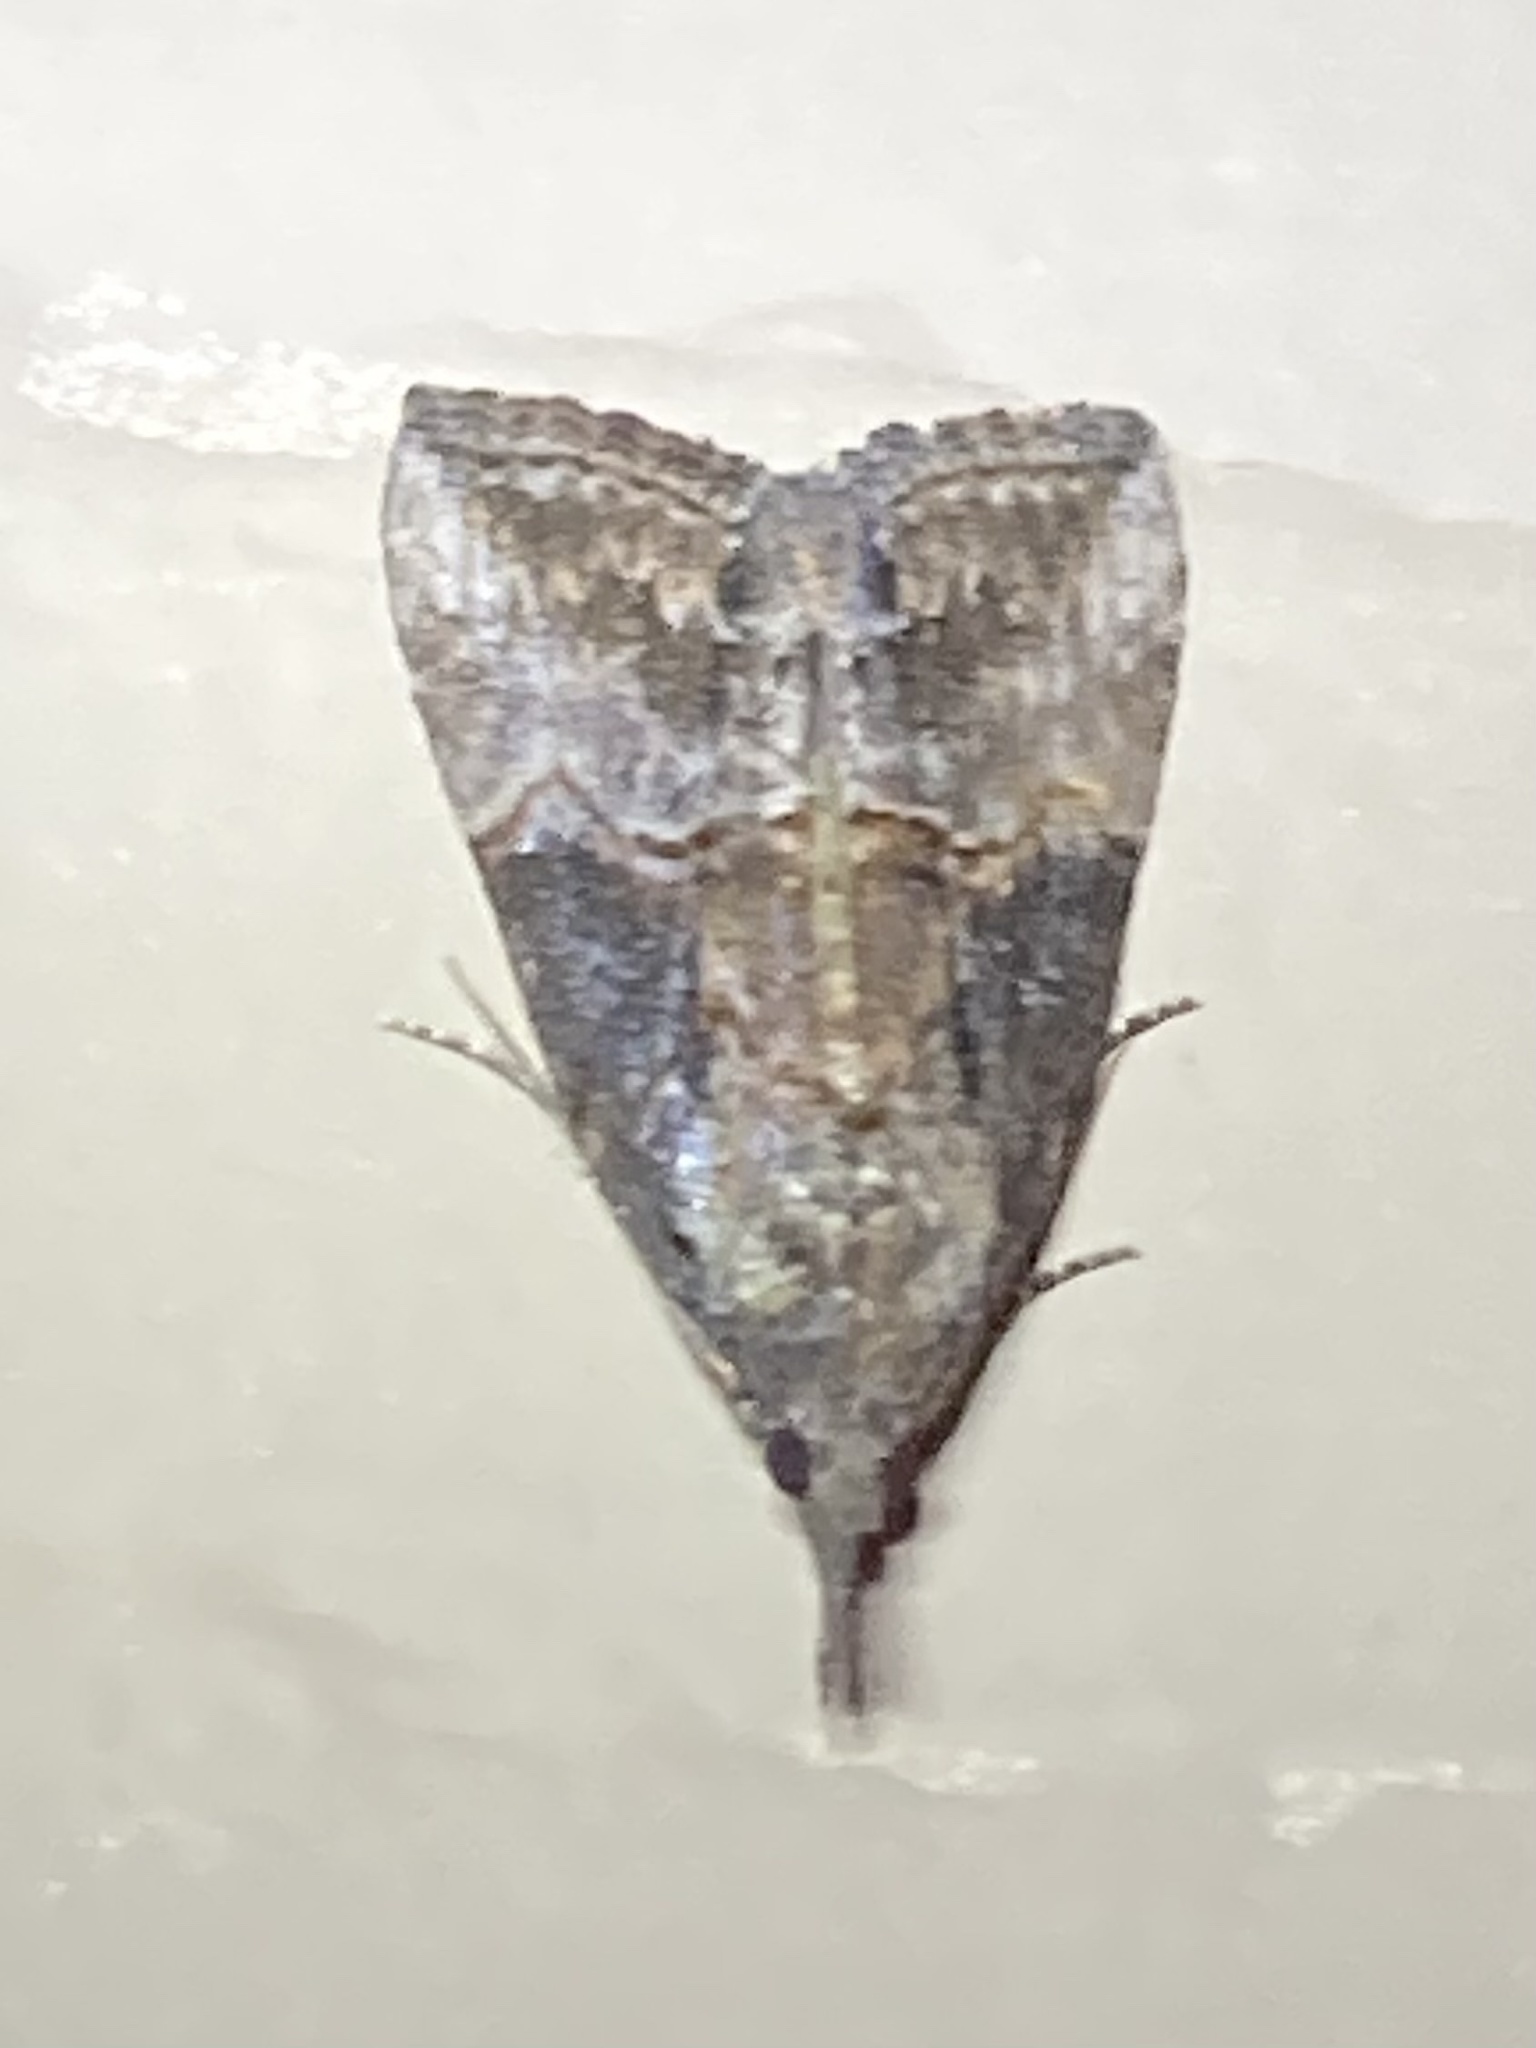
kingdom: Animalia
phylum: Arthropoda
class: Insecta
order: Lepidoptera
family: Erebidae
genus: Hypena
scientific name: Hypena scabra
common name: Green cloverworm
